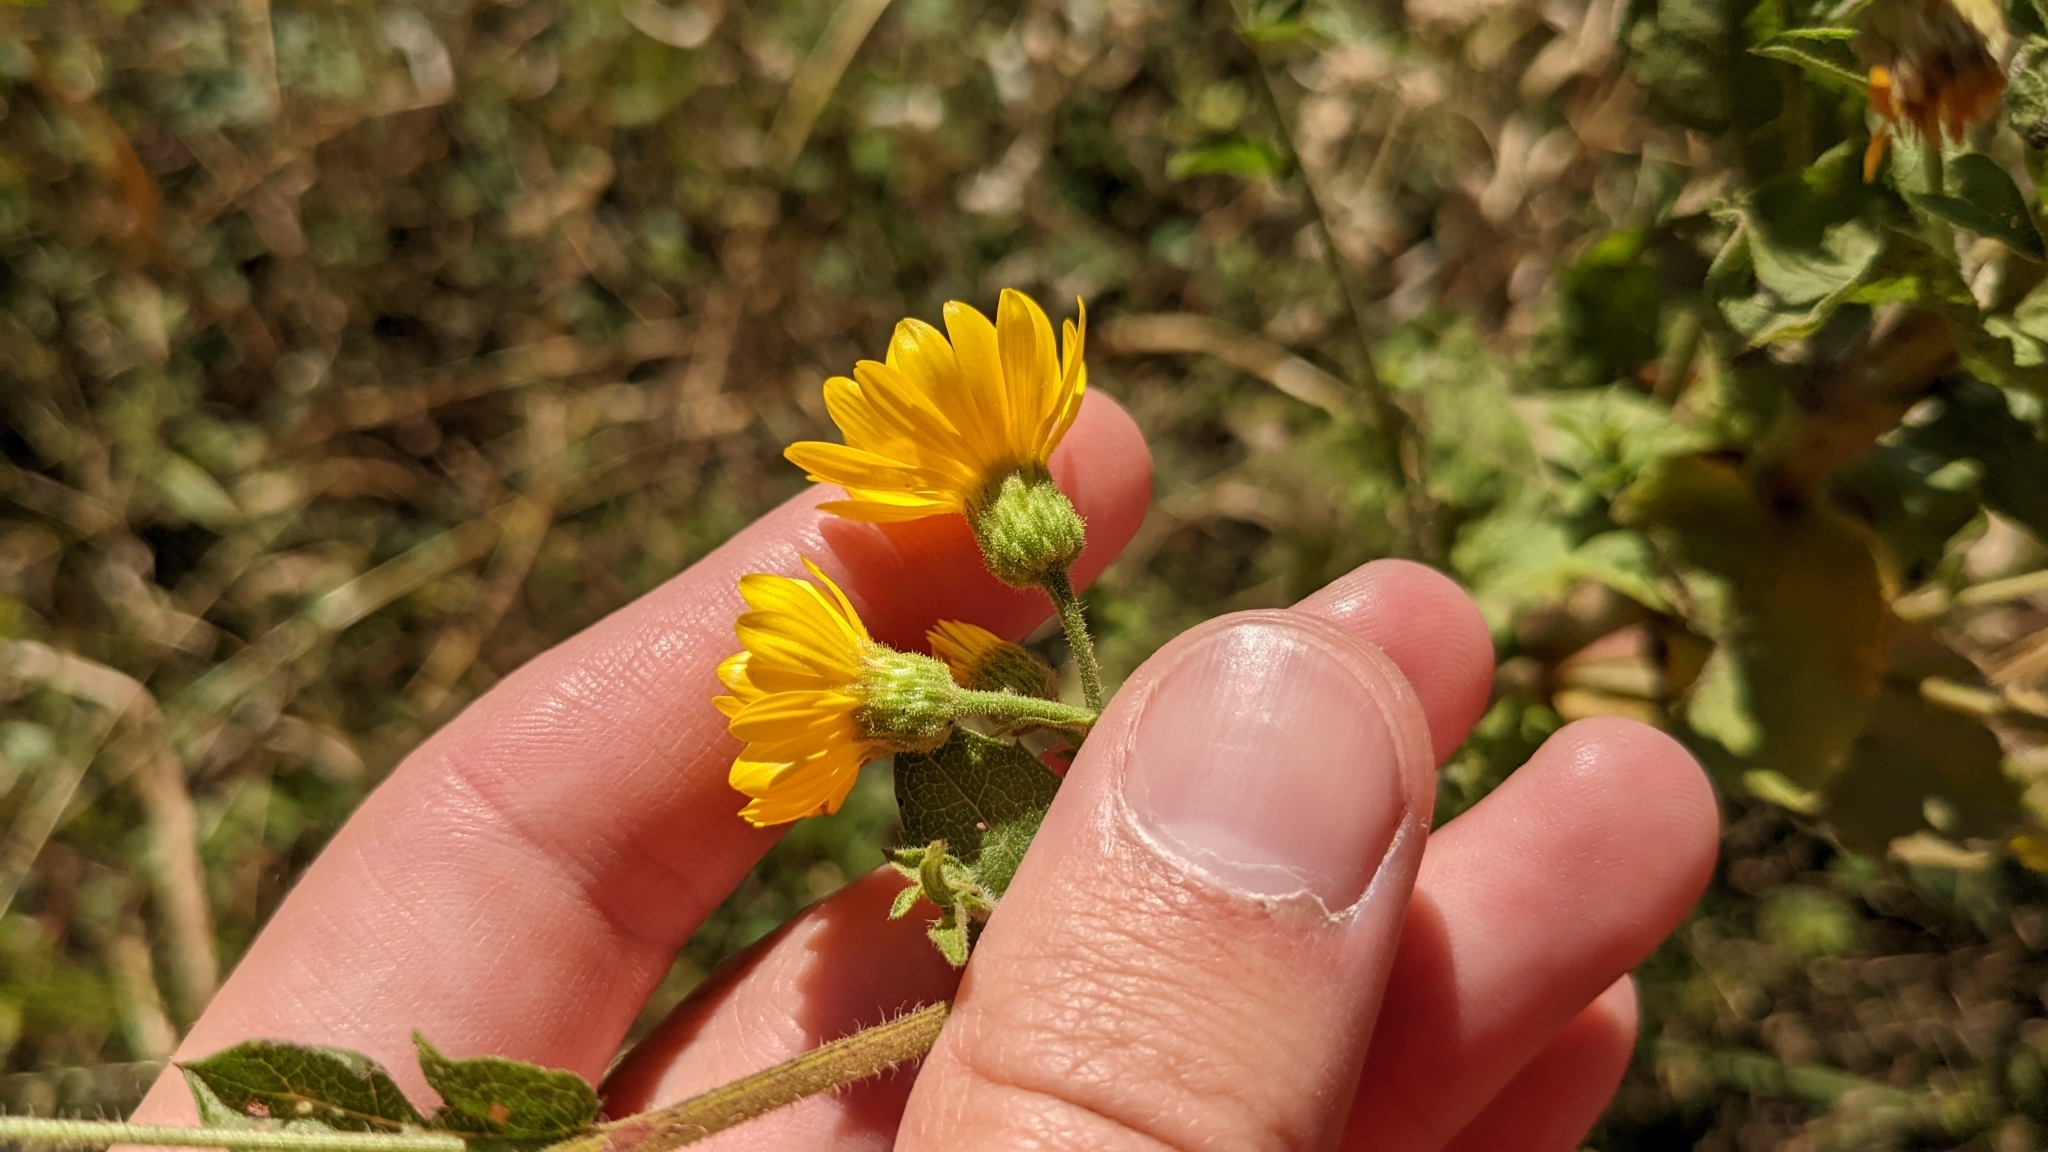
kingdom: Plantae
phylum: Tracheophyta
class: Magnoliopsida
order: Asterales
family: Asteraceae
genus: Heterotheca
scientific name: Heterotheca subaxillaris
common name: Camphorweed
